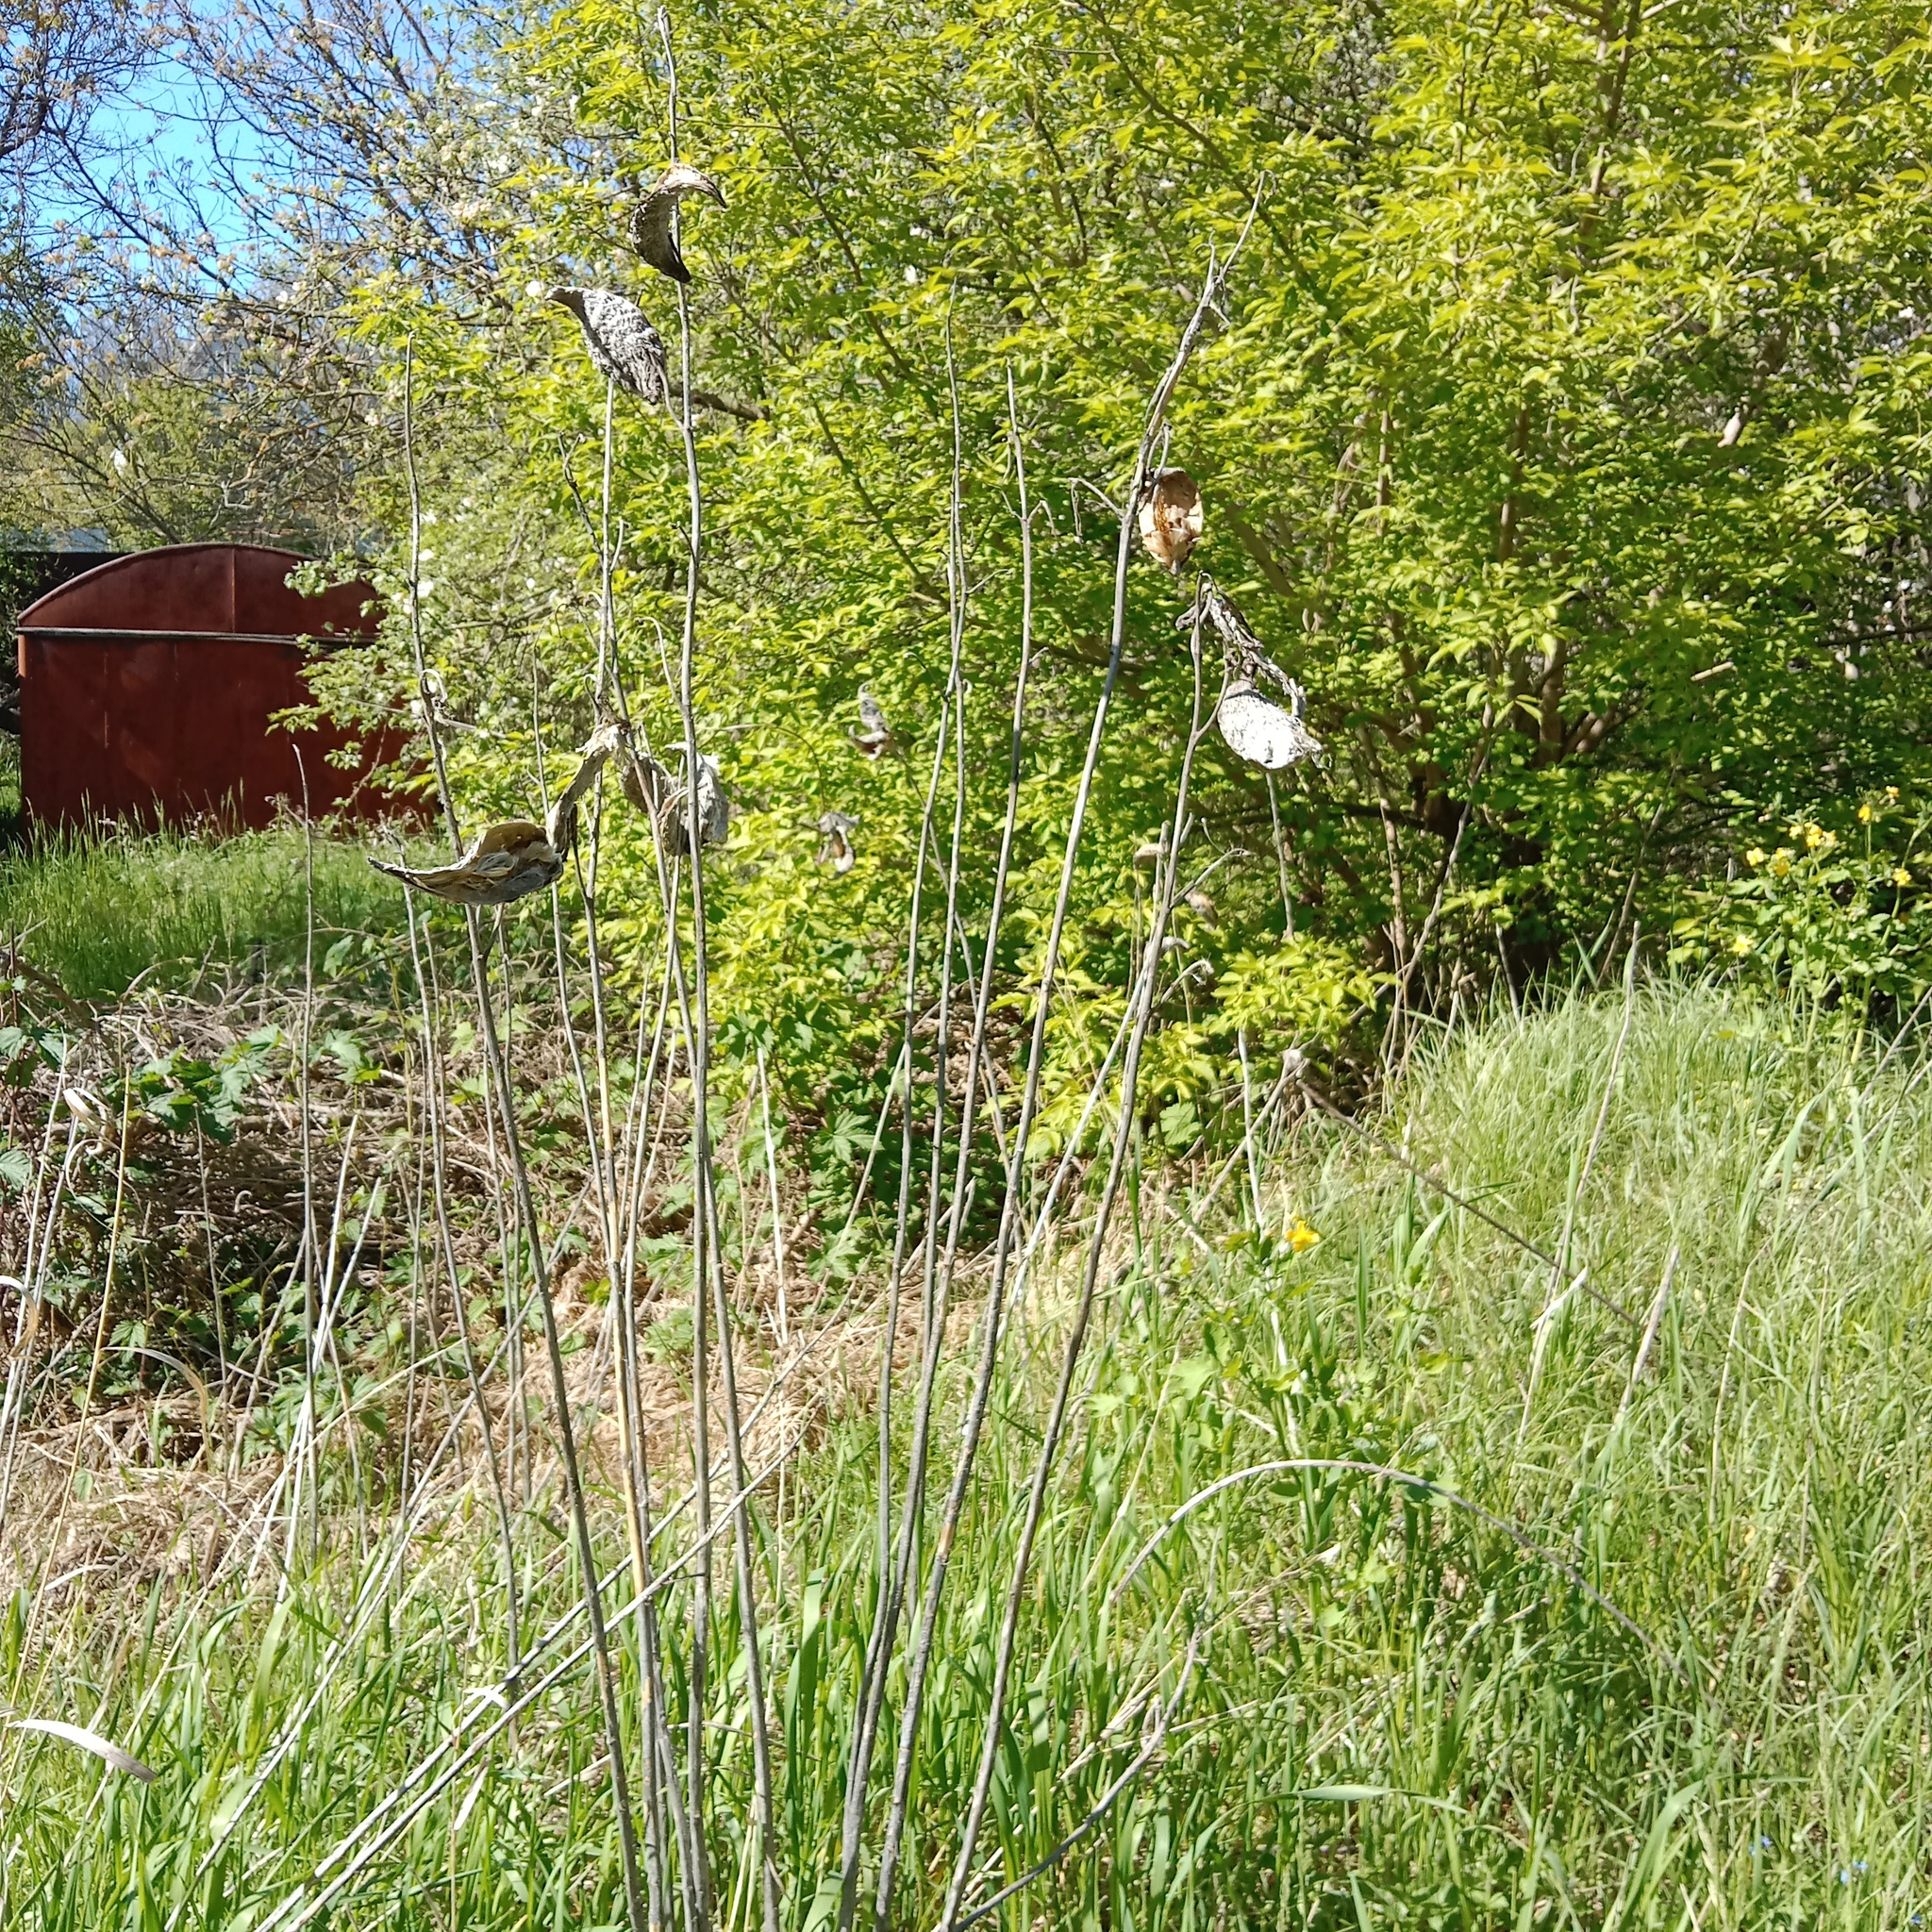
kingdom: Plantae
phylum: Tracheophyta
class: Magnoliopsida
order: Gentianales
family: Apocynaceae
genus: Asclepias
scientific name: Asclepias syriaca
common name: Common milkweed
